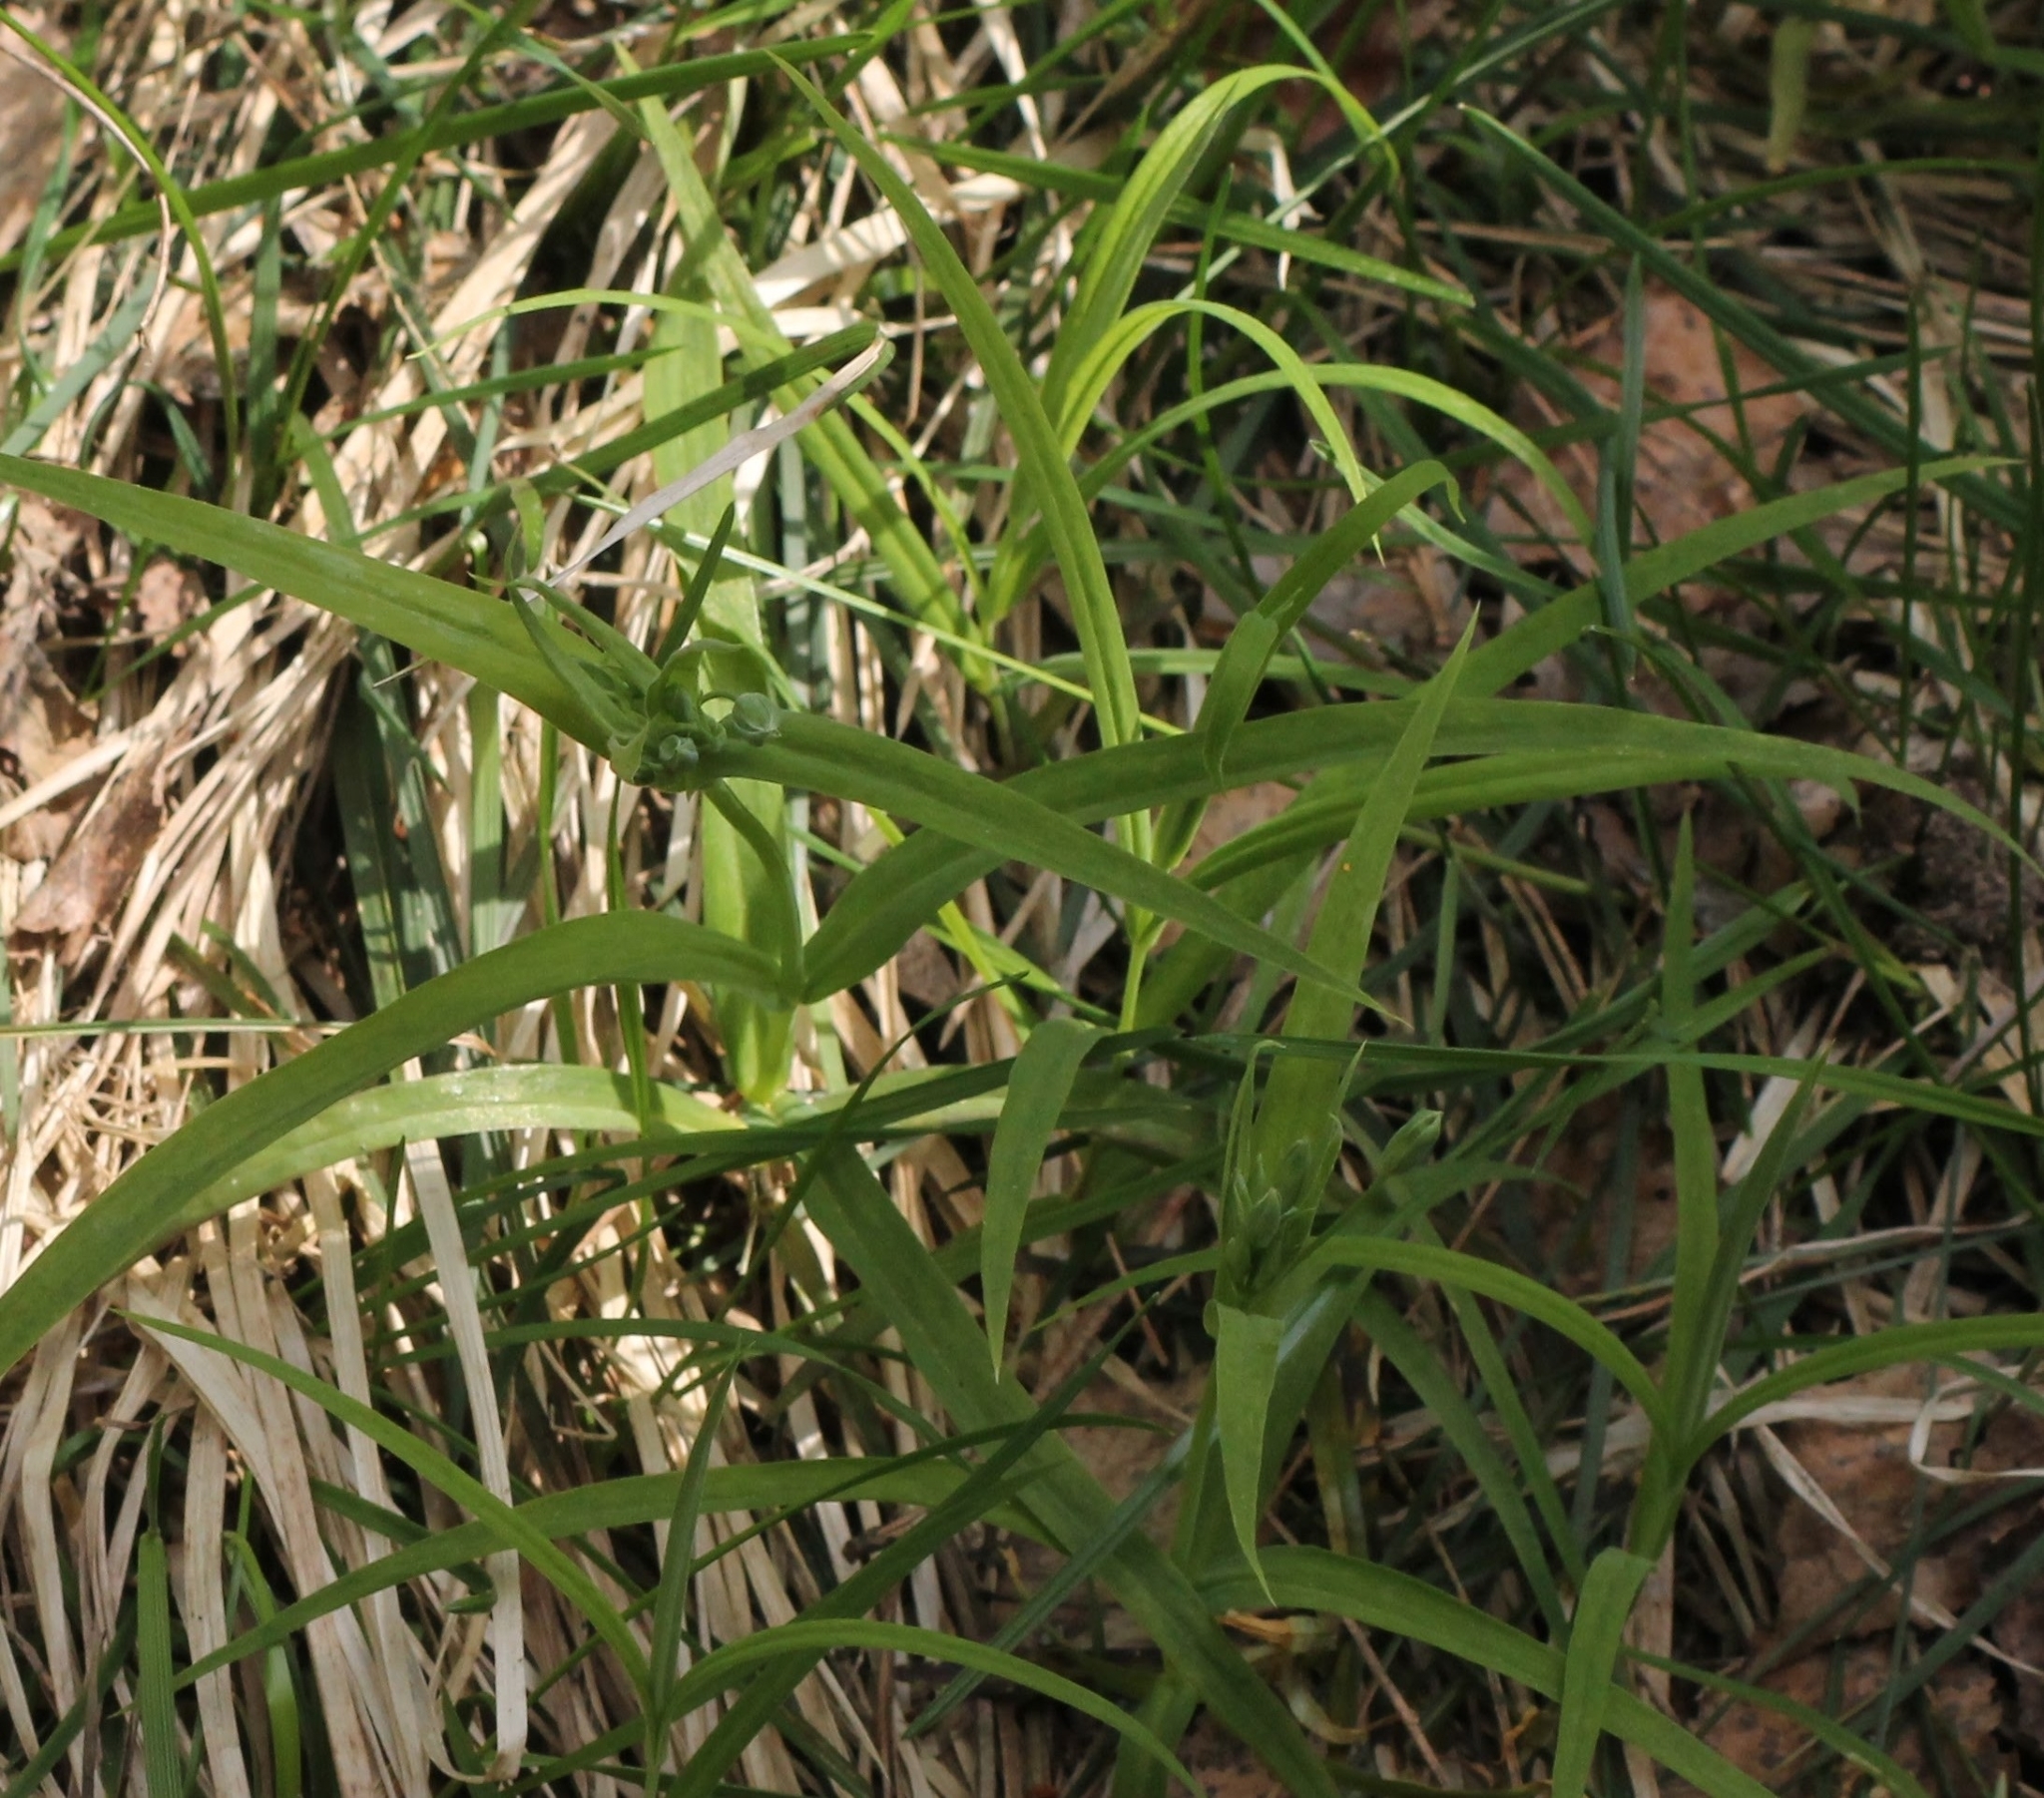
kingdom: Plantae
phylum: Tracheophyta
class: Magnoliopsida
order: Caryophyllales
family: Caryophyllaceae
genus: Rabelera
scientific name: Rabelera holostea
